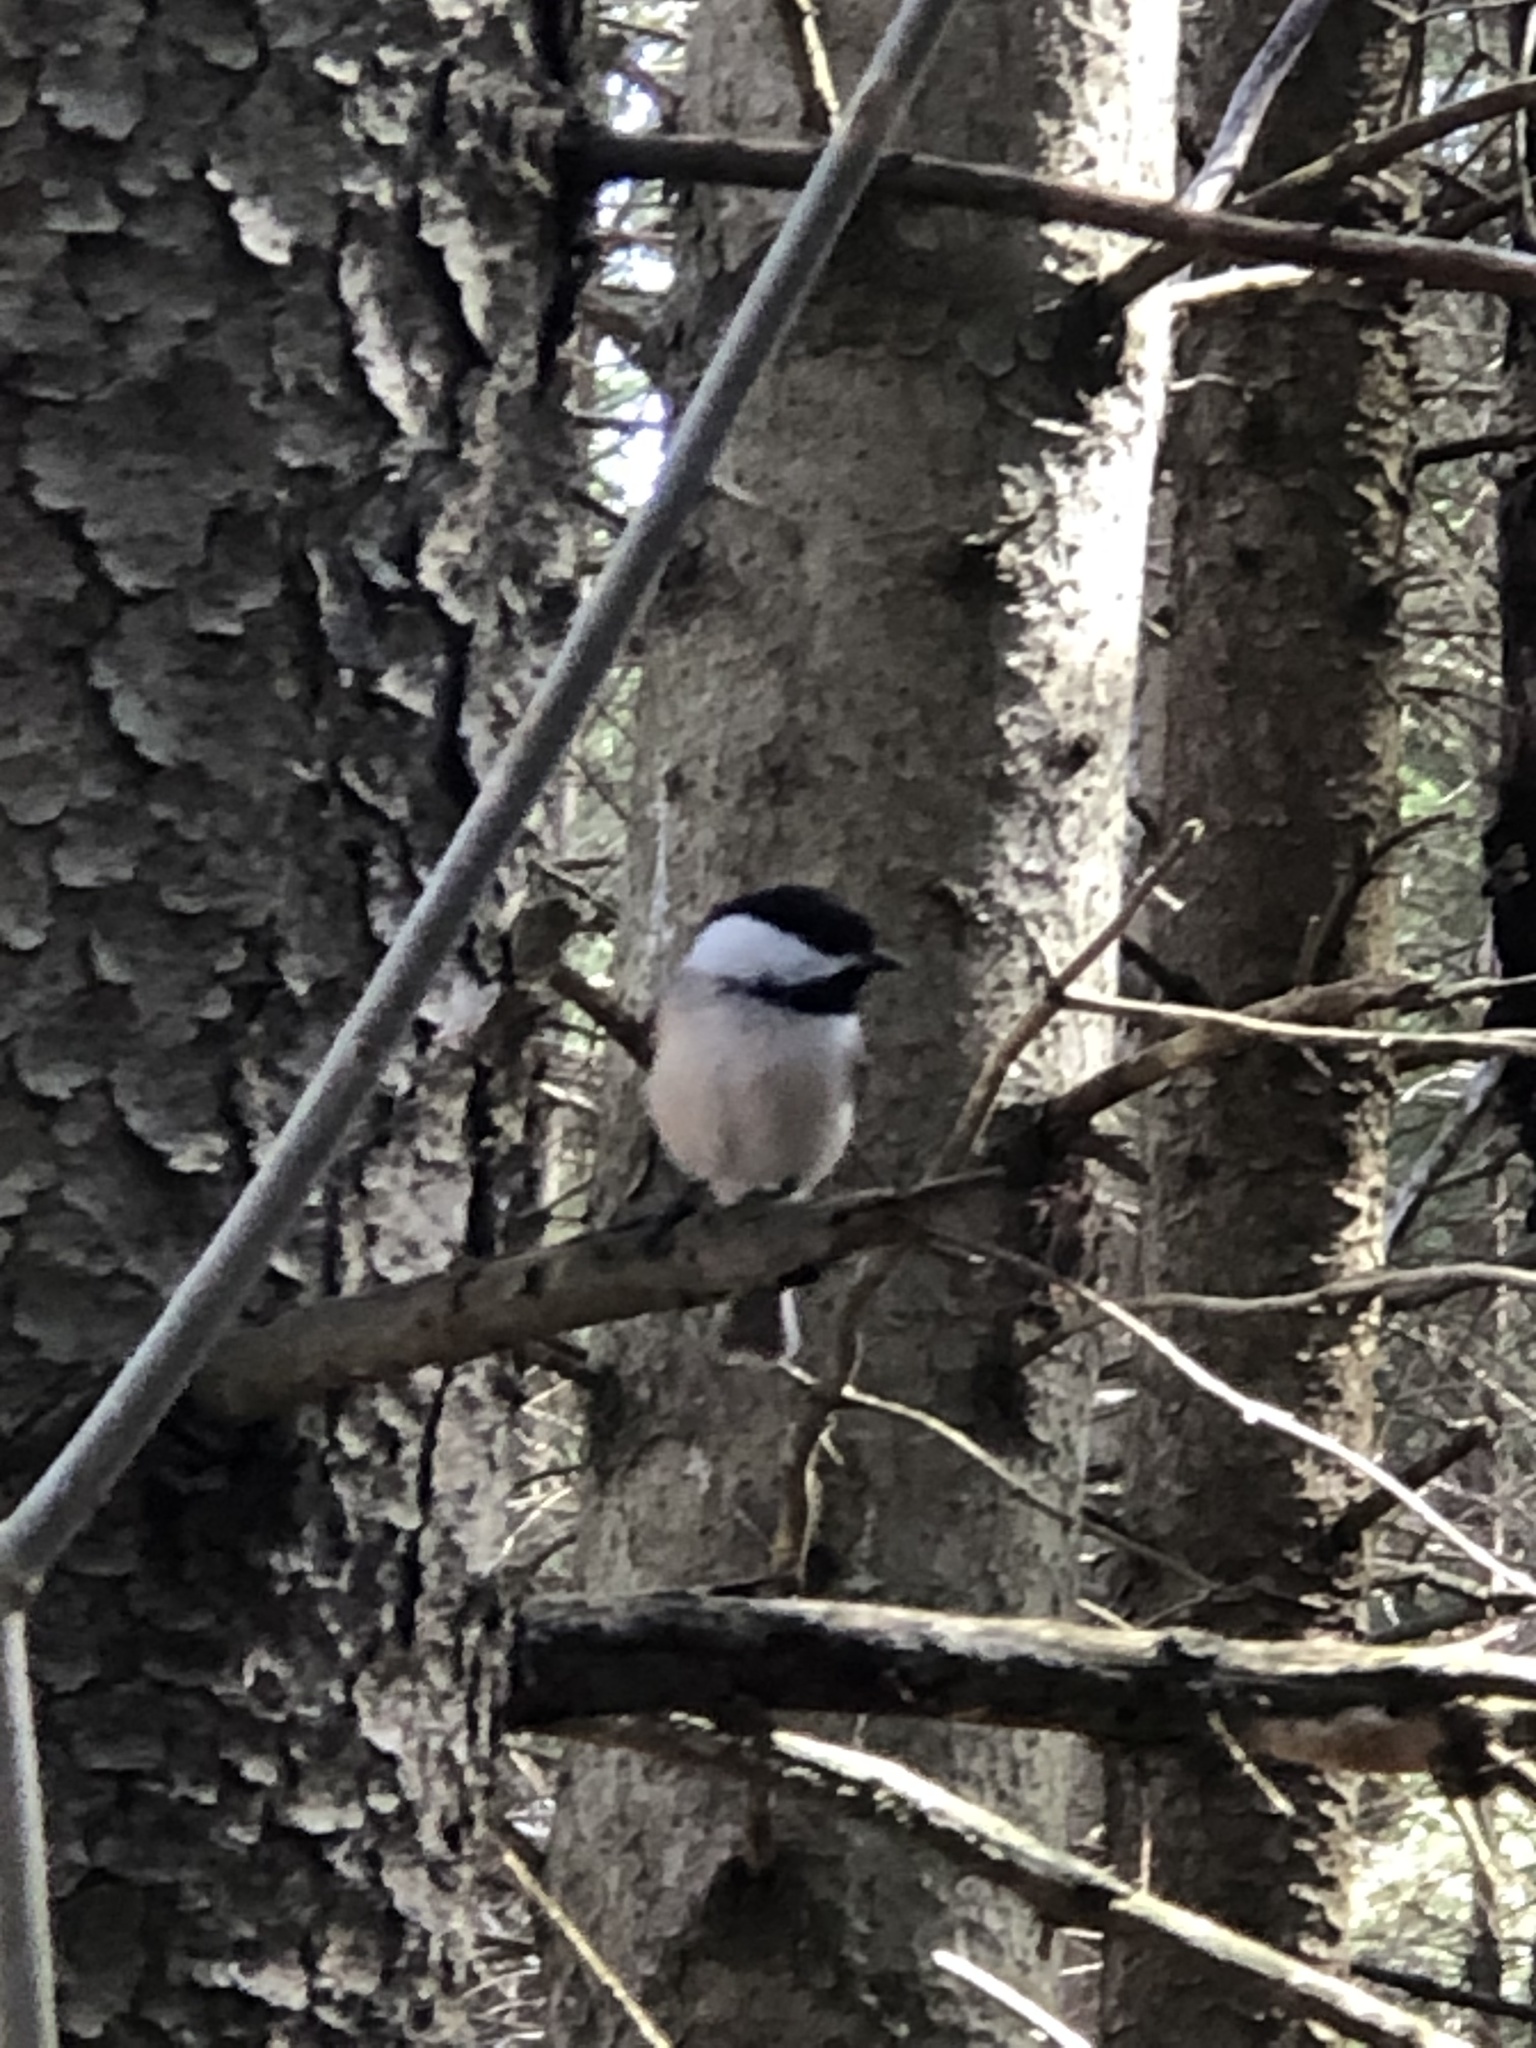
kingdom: Animalia
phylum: Chordata
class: Aves
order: Passeriformes
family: Paridae
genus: Poecile
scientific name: Poecile atricapillus
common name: Black-capped chickadee
